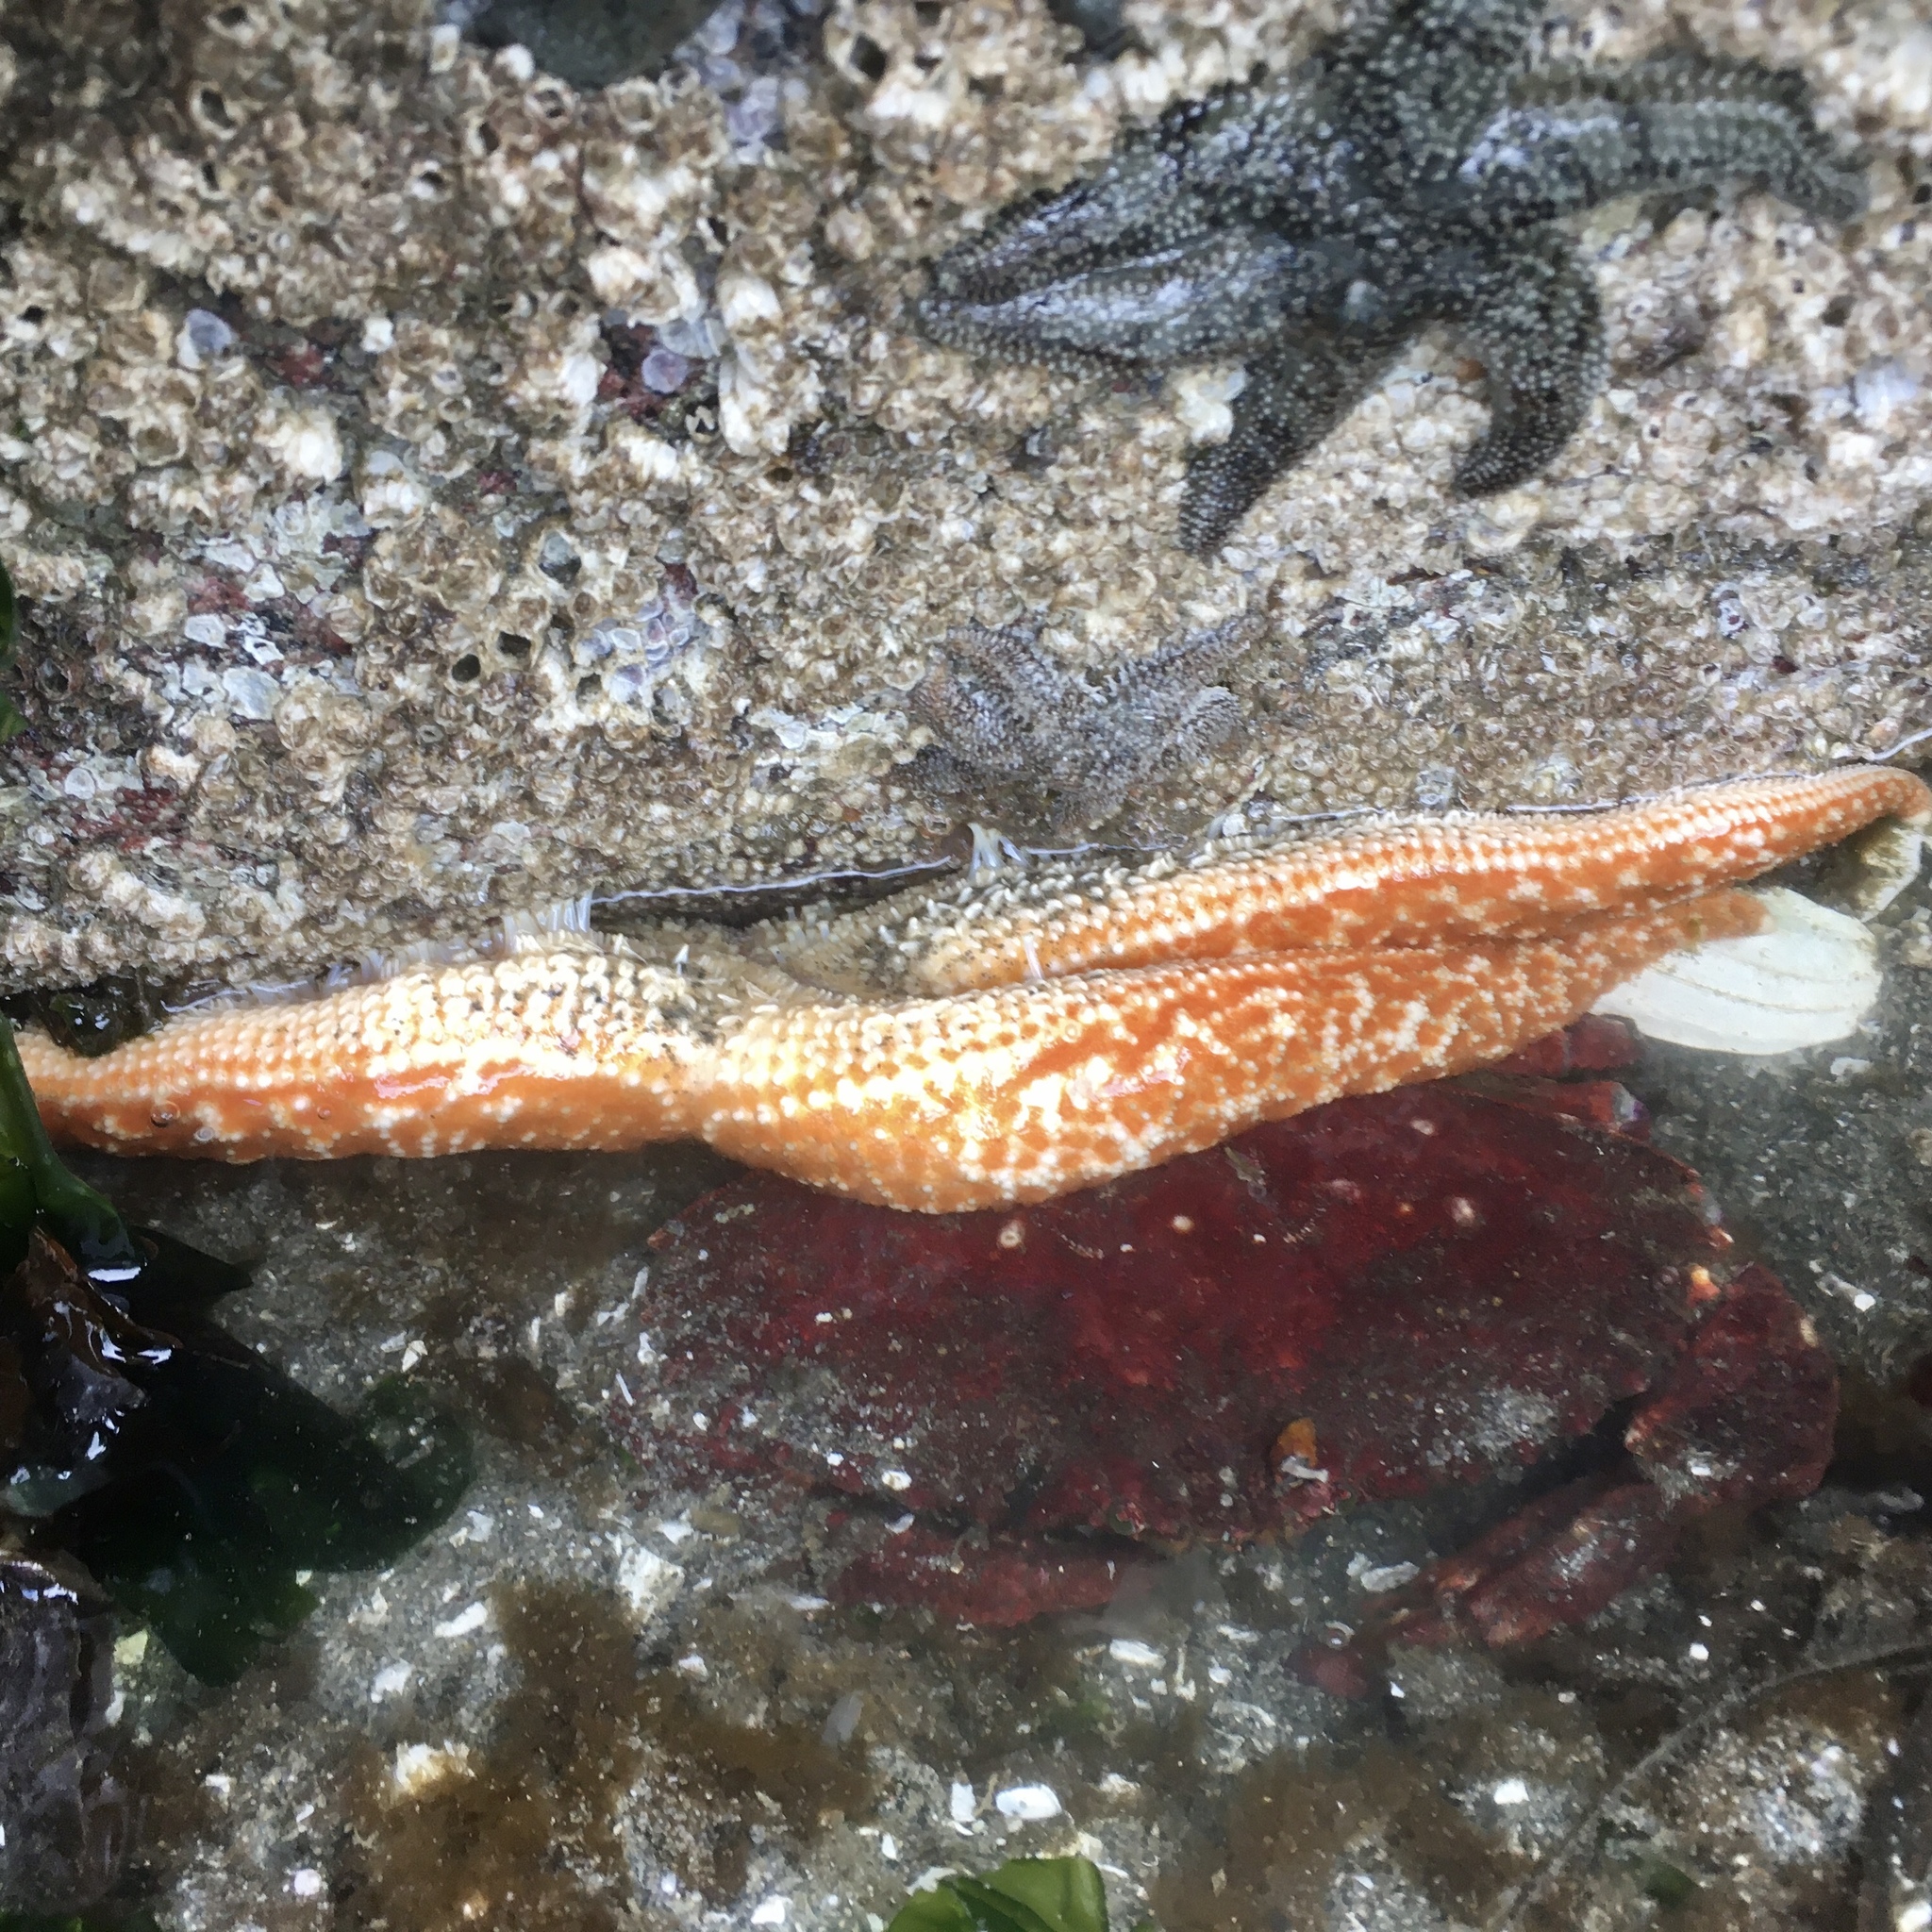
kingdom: Animalia
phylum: Echinodermata
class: Asteroidea
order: Forcipulatida
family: Asteriidae
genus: Evasterias
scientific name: Evasterias troschelii
